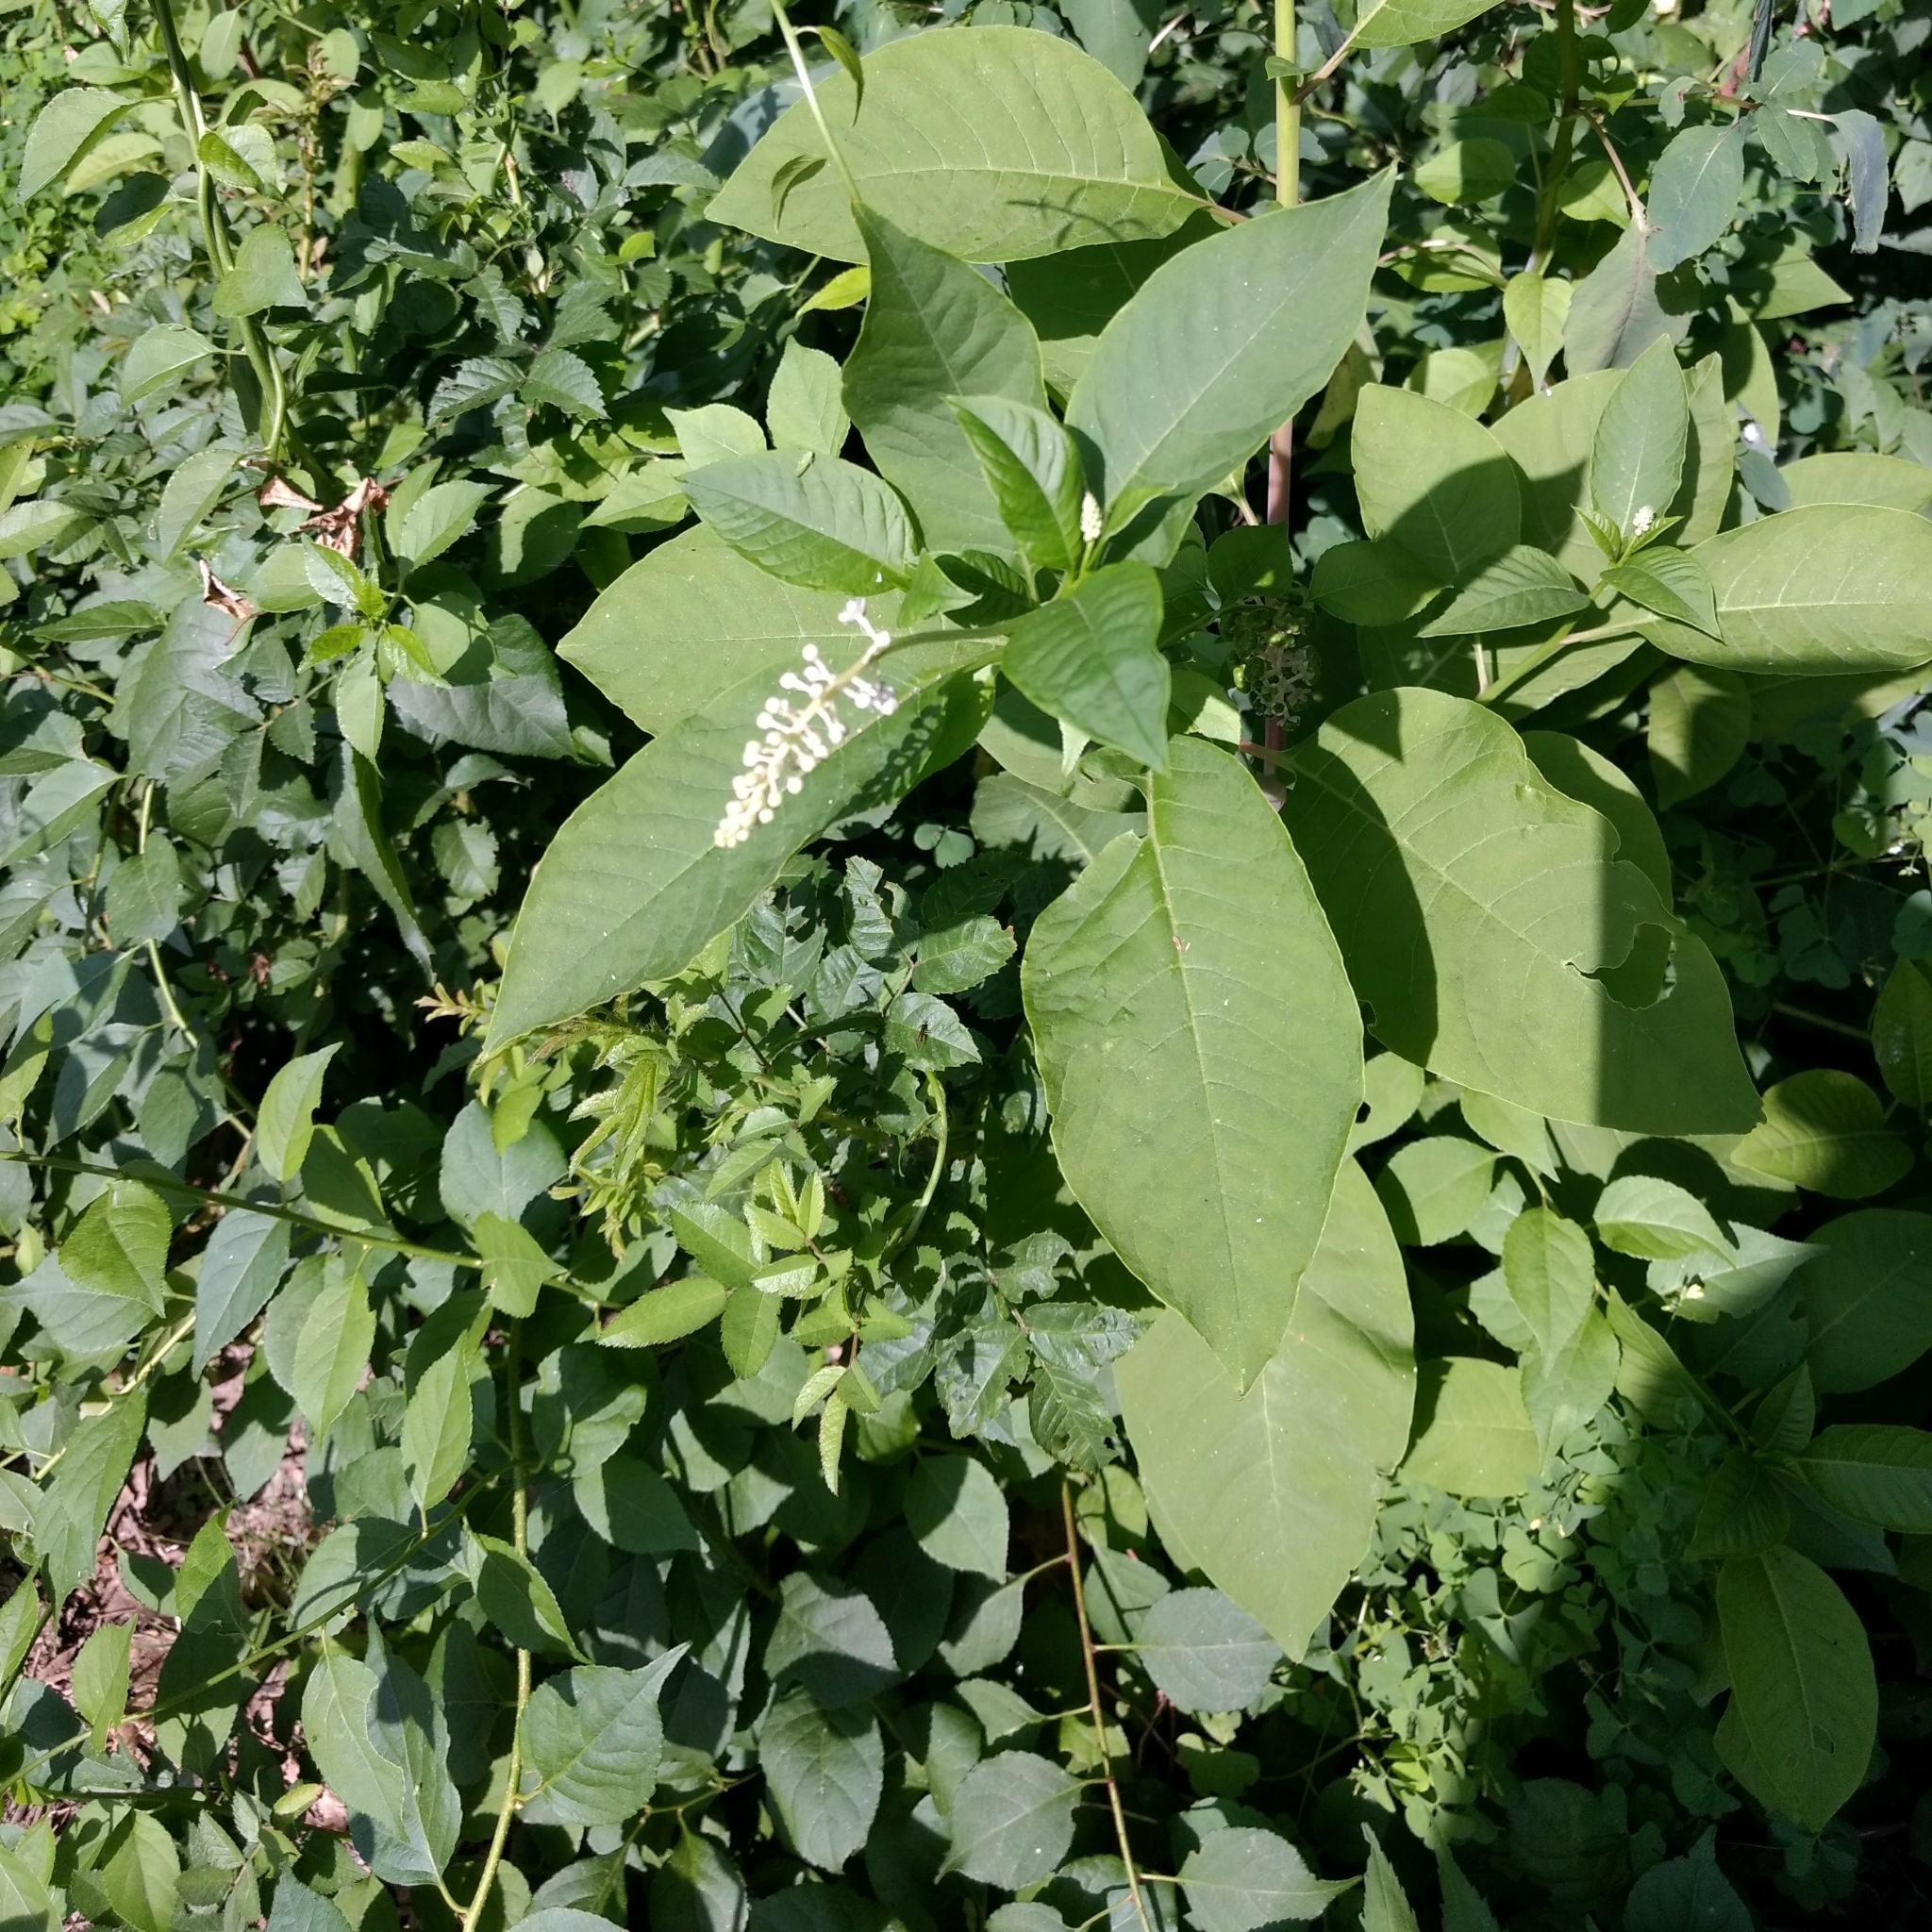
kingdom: Plantae
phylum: Tracheophyta
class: Magnoliopsida
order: Caryophyllales
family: Phytolaccaceae
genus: Phytolacca
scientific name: Phytolacca americana
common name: American pokeweed
